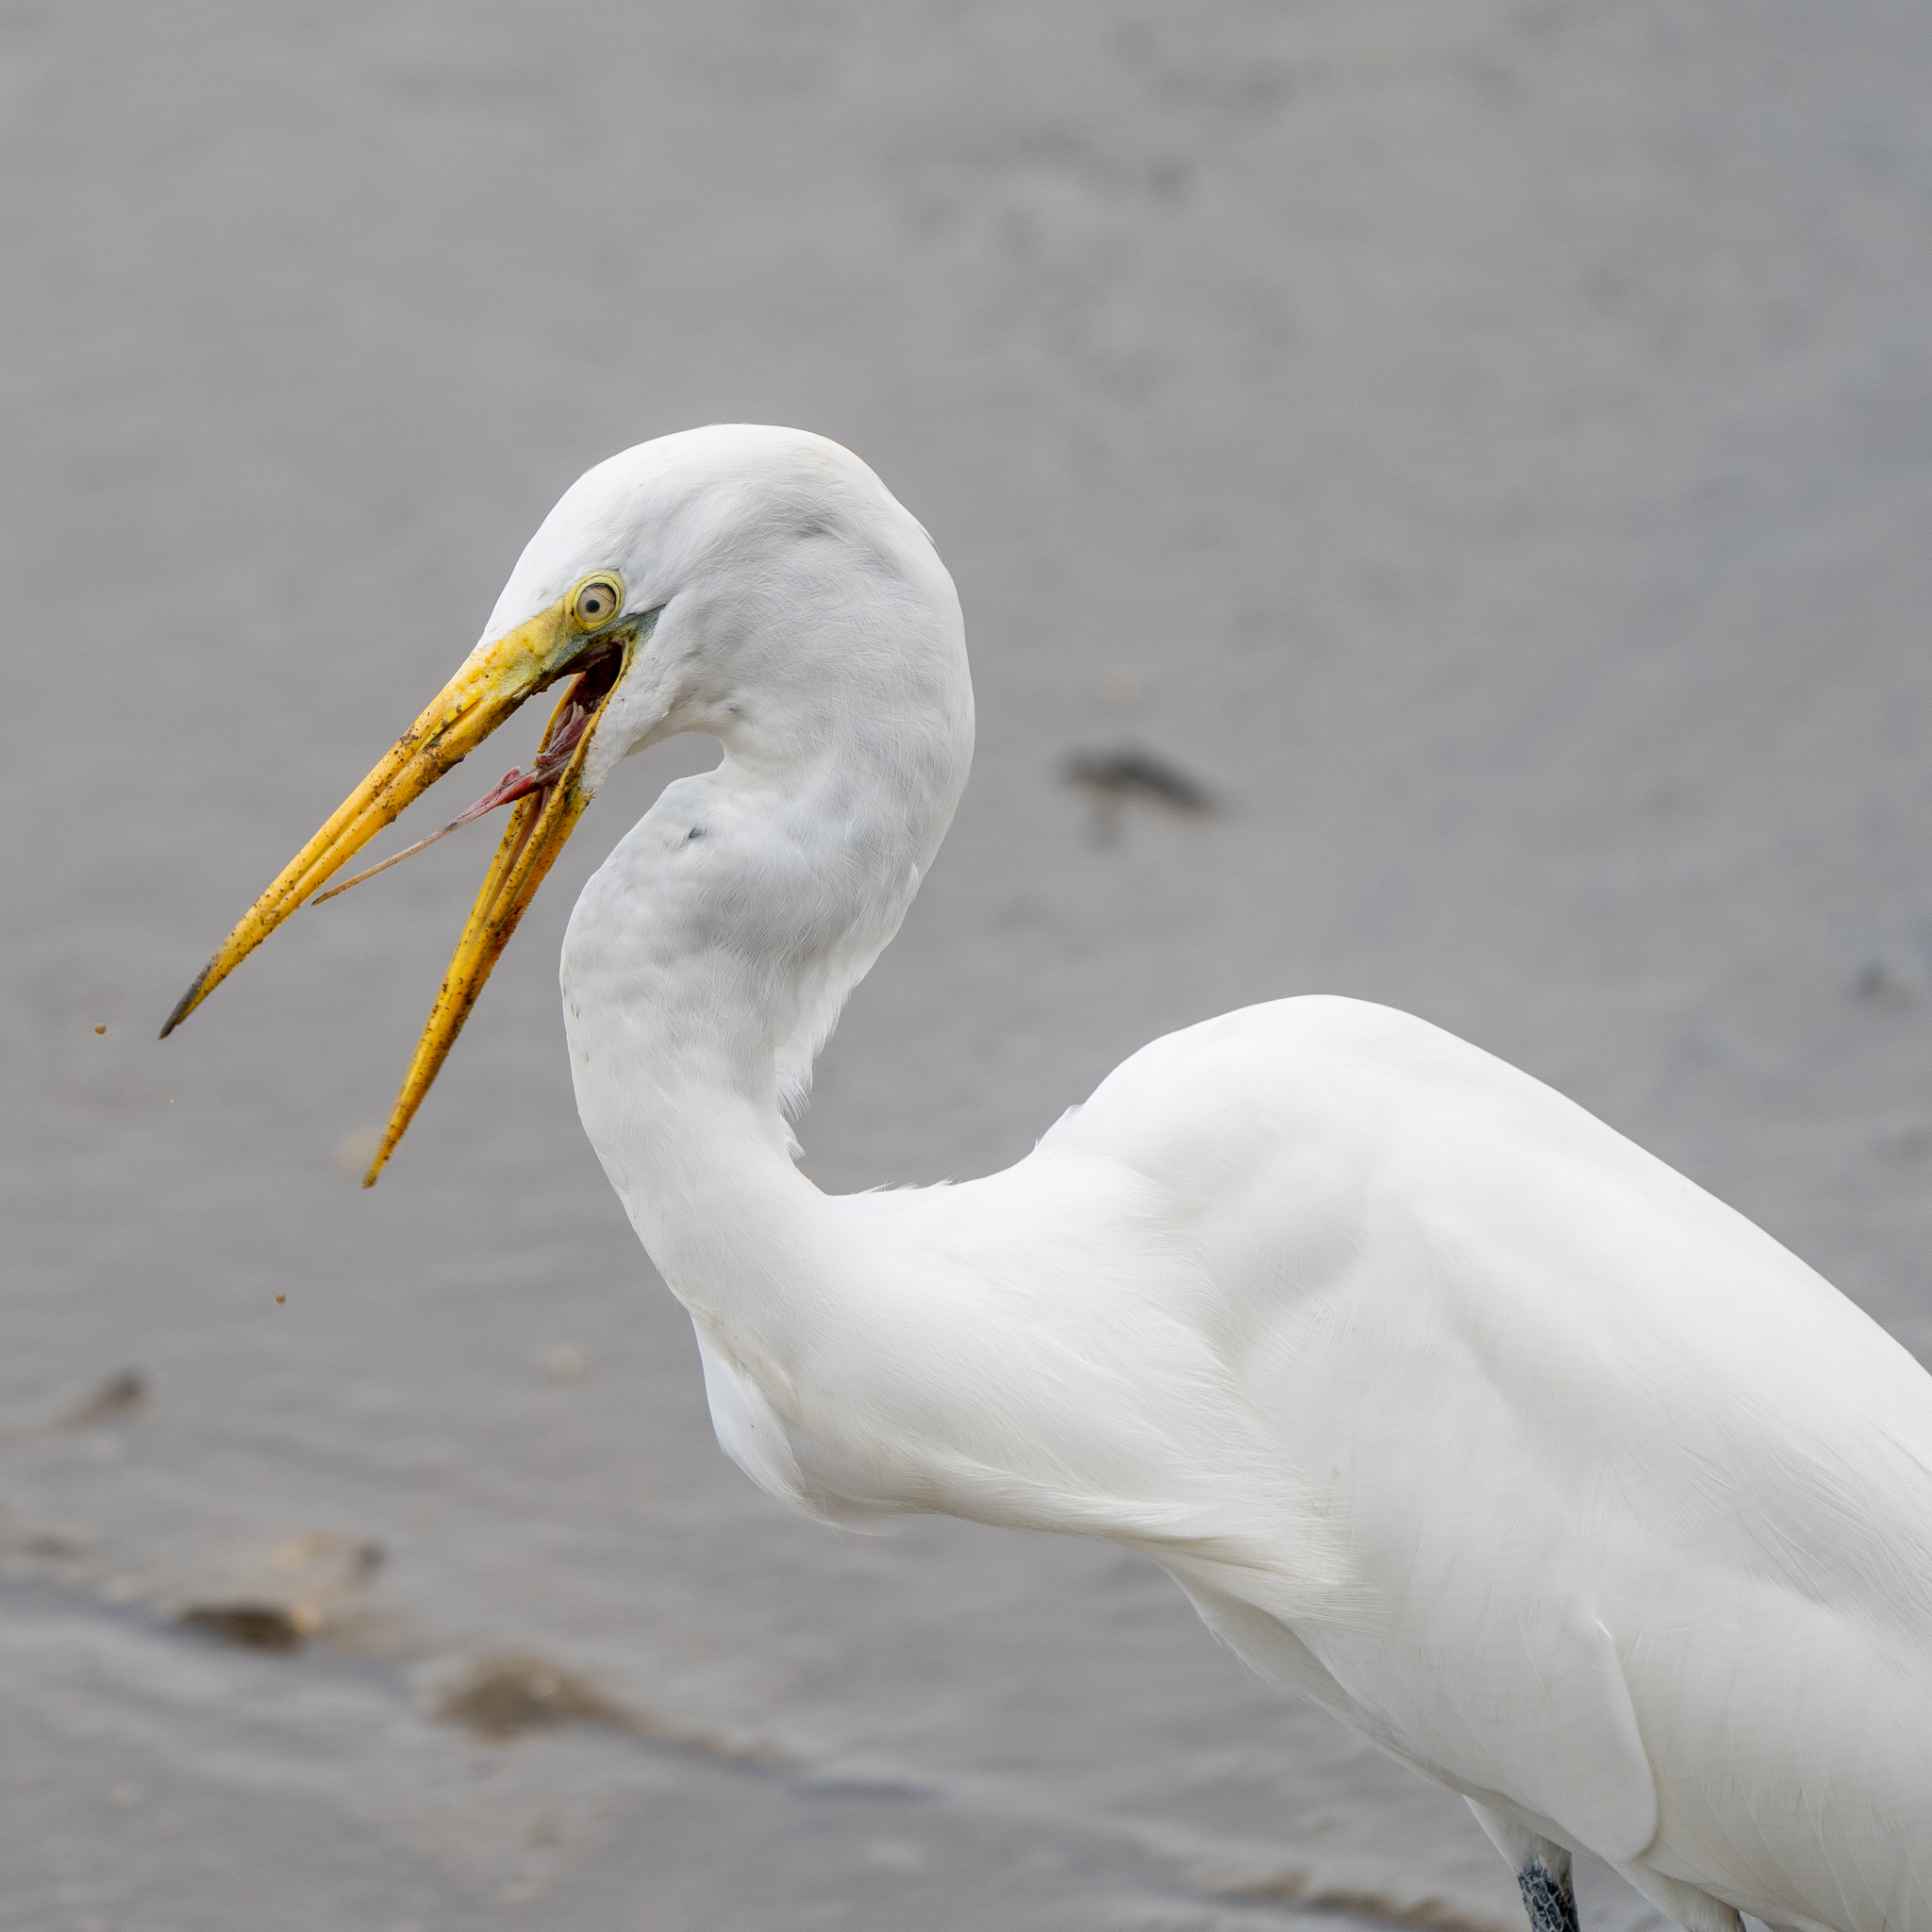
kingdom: Animalia
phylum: Chordata
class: Aves
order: Pelecaniformes
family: Ardeidae
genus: Ardea
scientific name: Ardea alba
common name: Great egret
